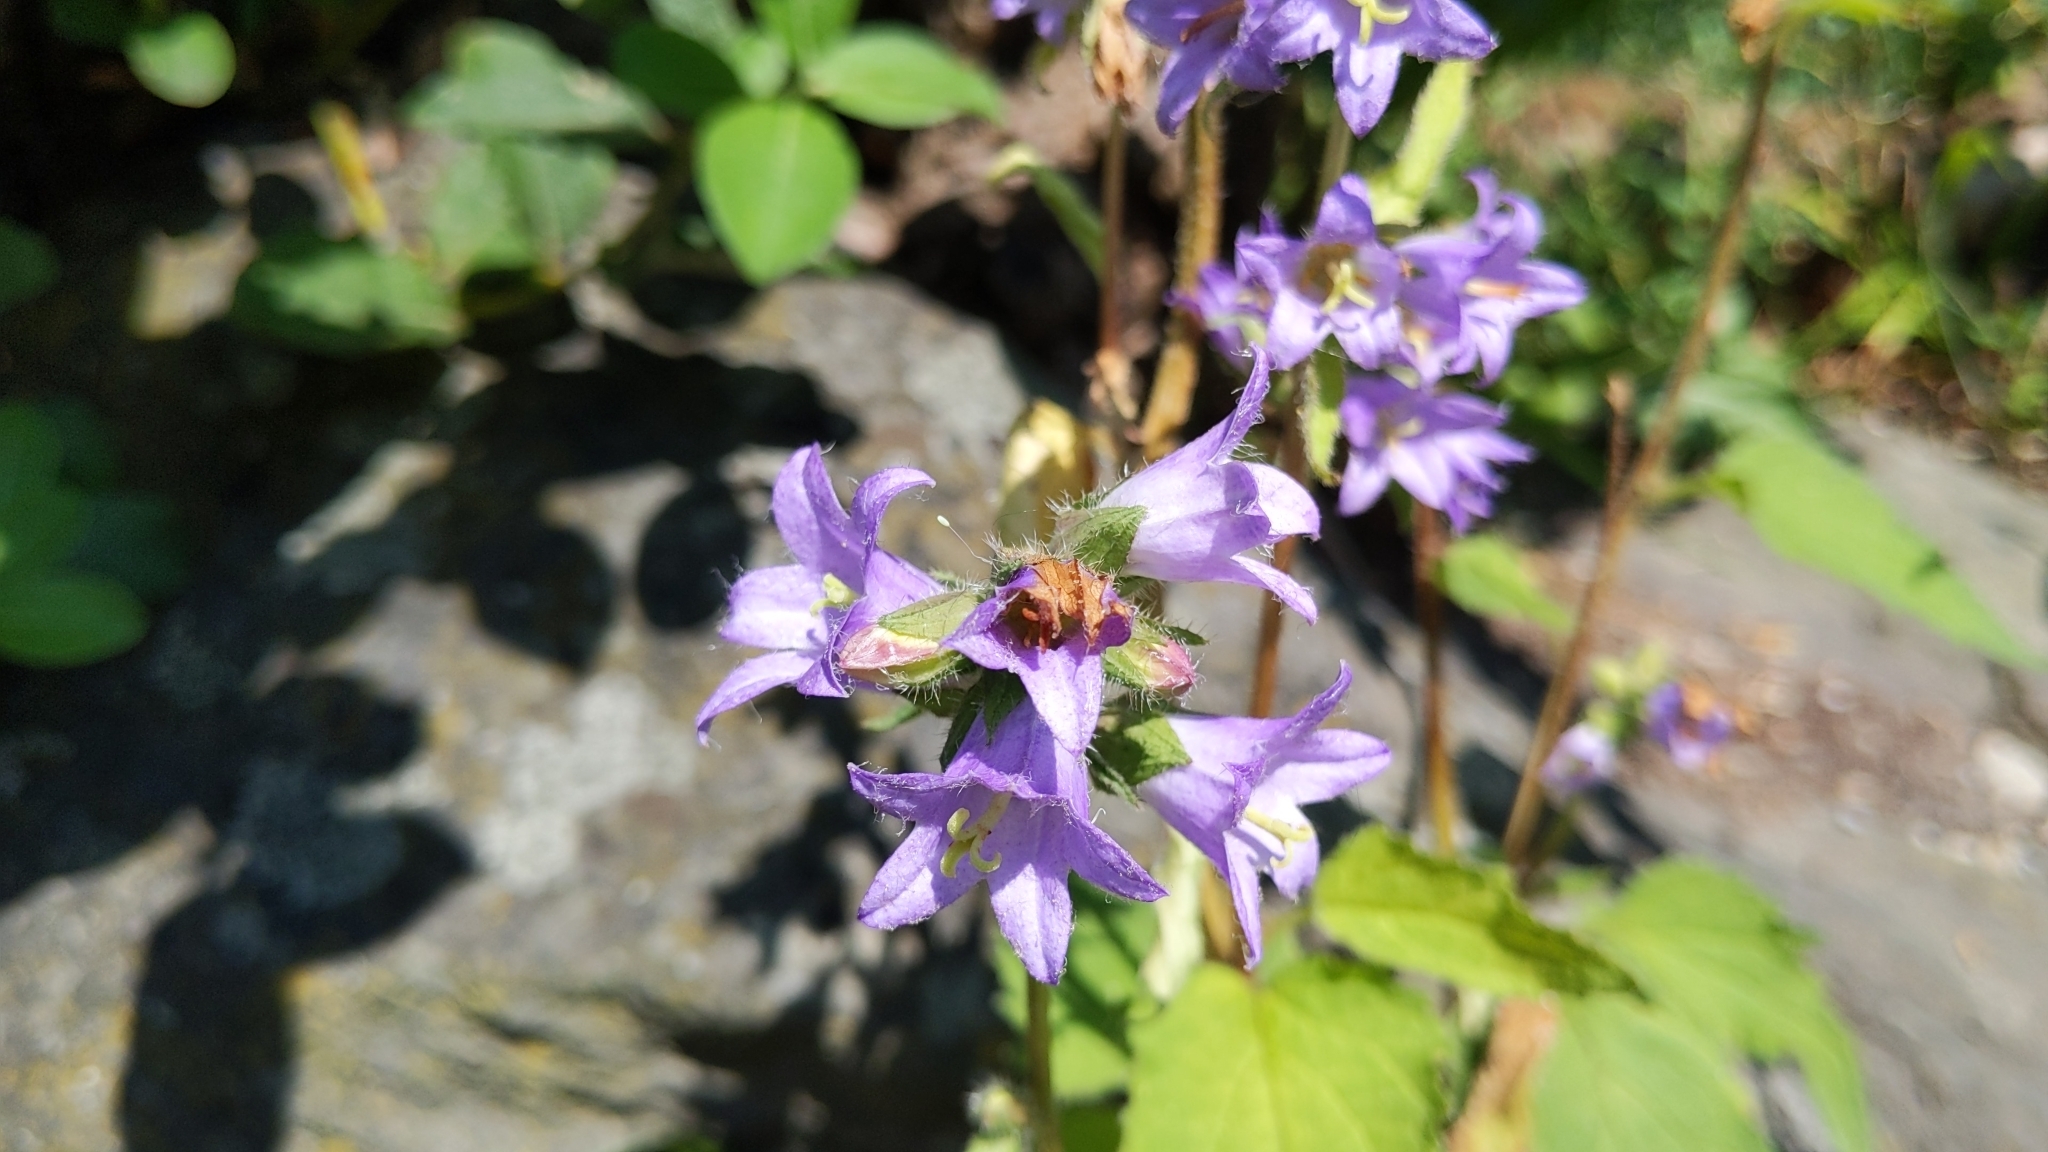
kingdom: Plantae
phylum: Tracheophyta
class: Magnoliopsida
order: Asterales
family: Campanulaceae
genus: Campanula
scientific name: Campanula trachelium
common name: Nettle-leaved bellflower
